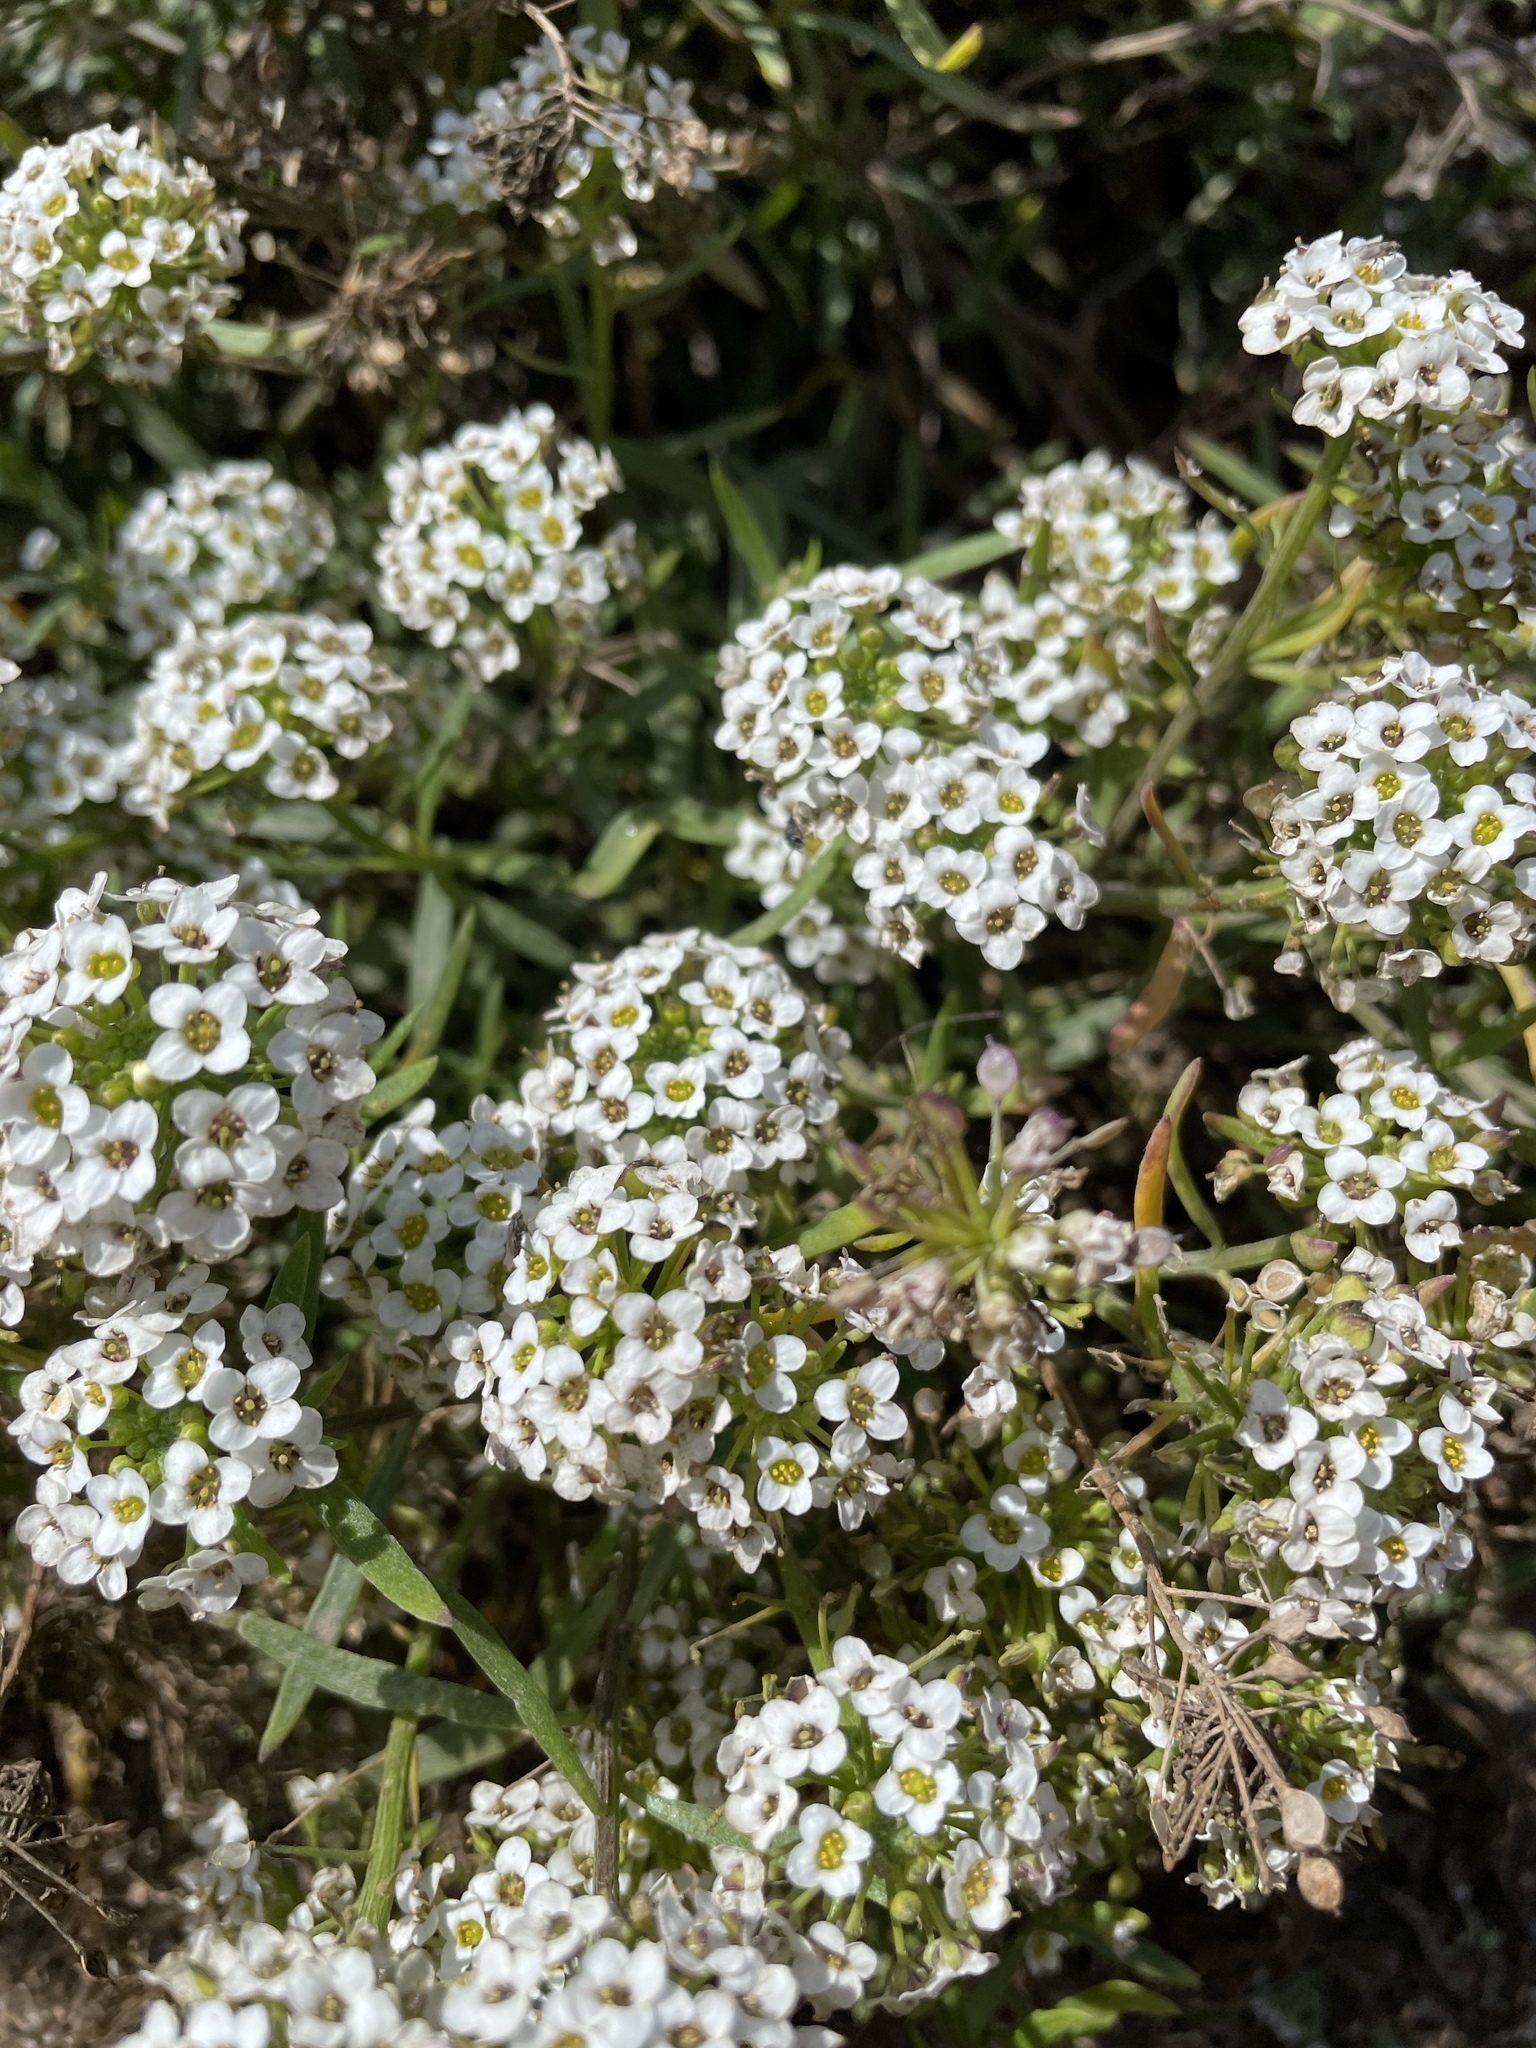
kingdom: Plantae
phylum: Tracheophyta
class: Magnoliopsida
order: Brassicales
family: Brassicaceae
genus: Lobularia
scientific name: Lobularia maritima
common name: Sweet alison
